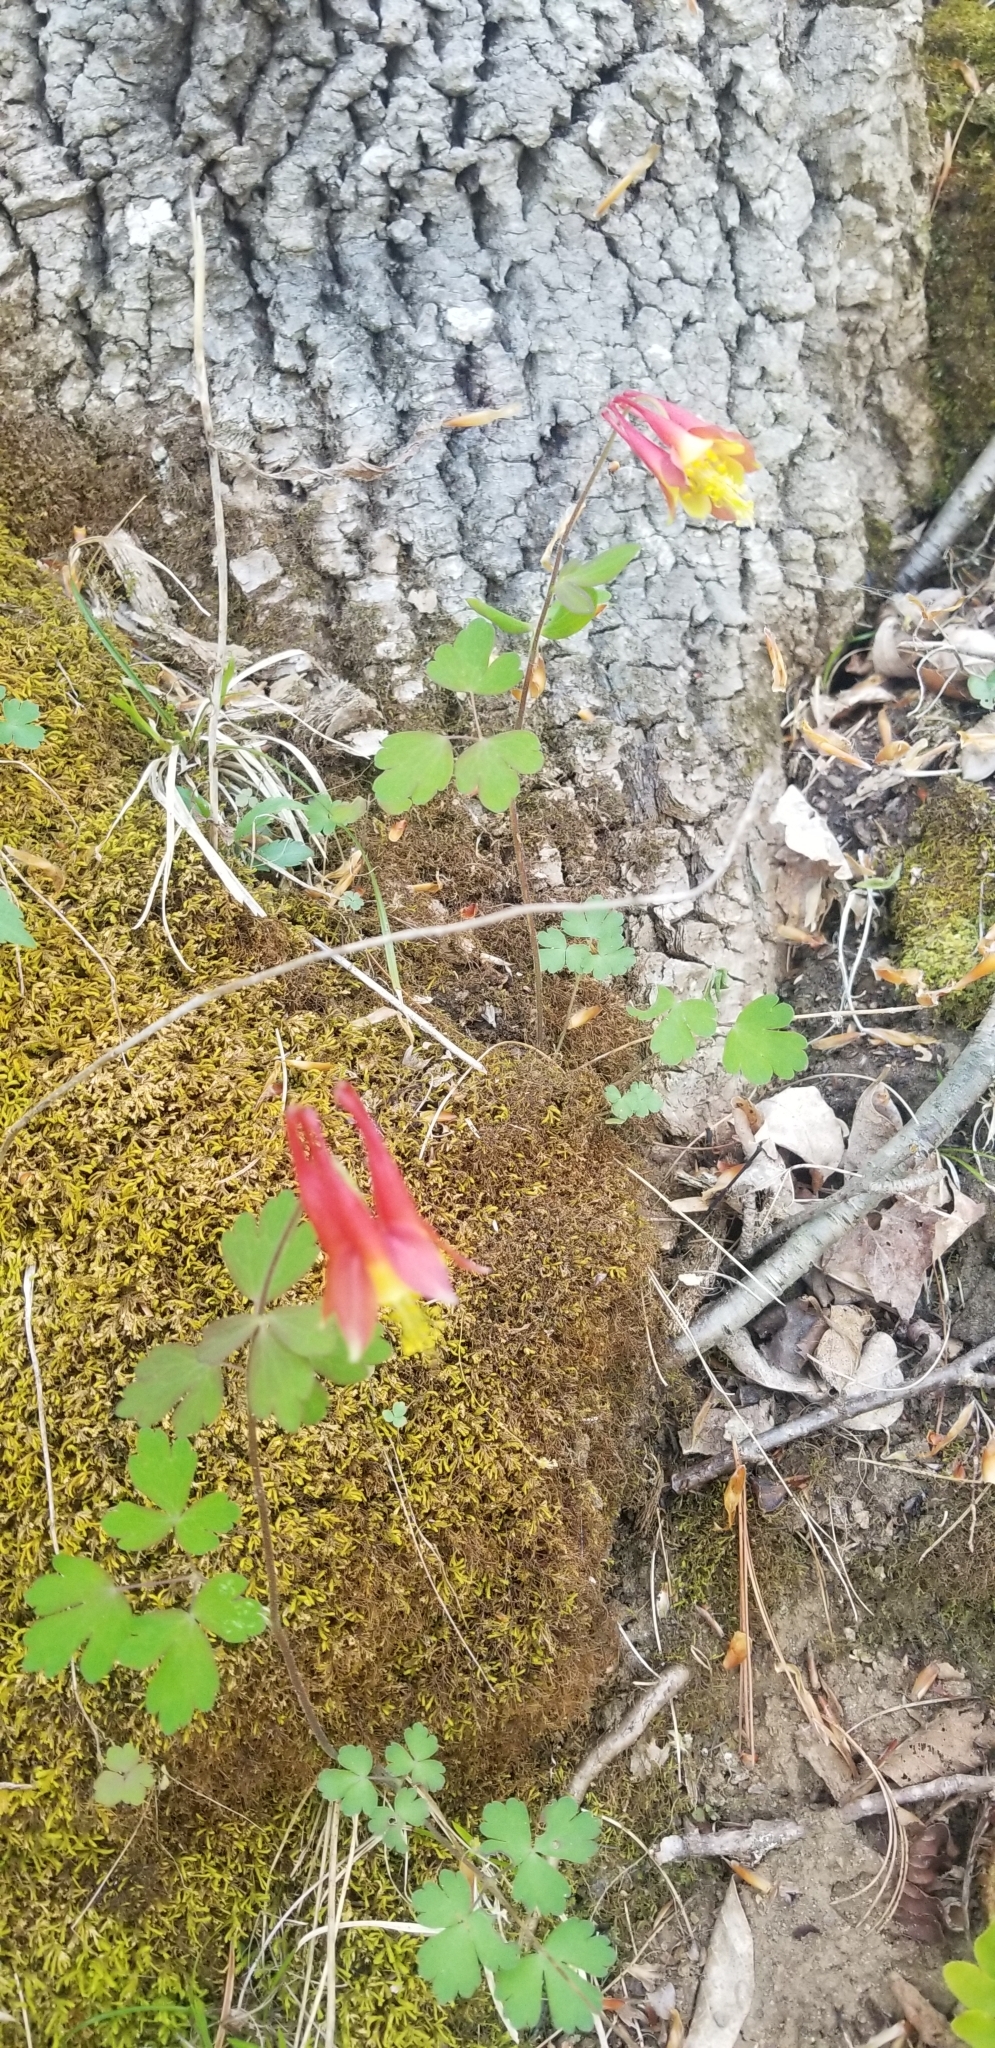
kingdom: Plantae
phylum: Tracheophyta
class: Magnoliopsida
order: Ranunculales
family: Ranunculaceae
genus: Aquilegia
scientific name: Aquilegia canadensis
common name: American columbine
